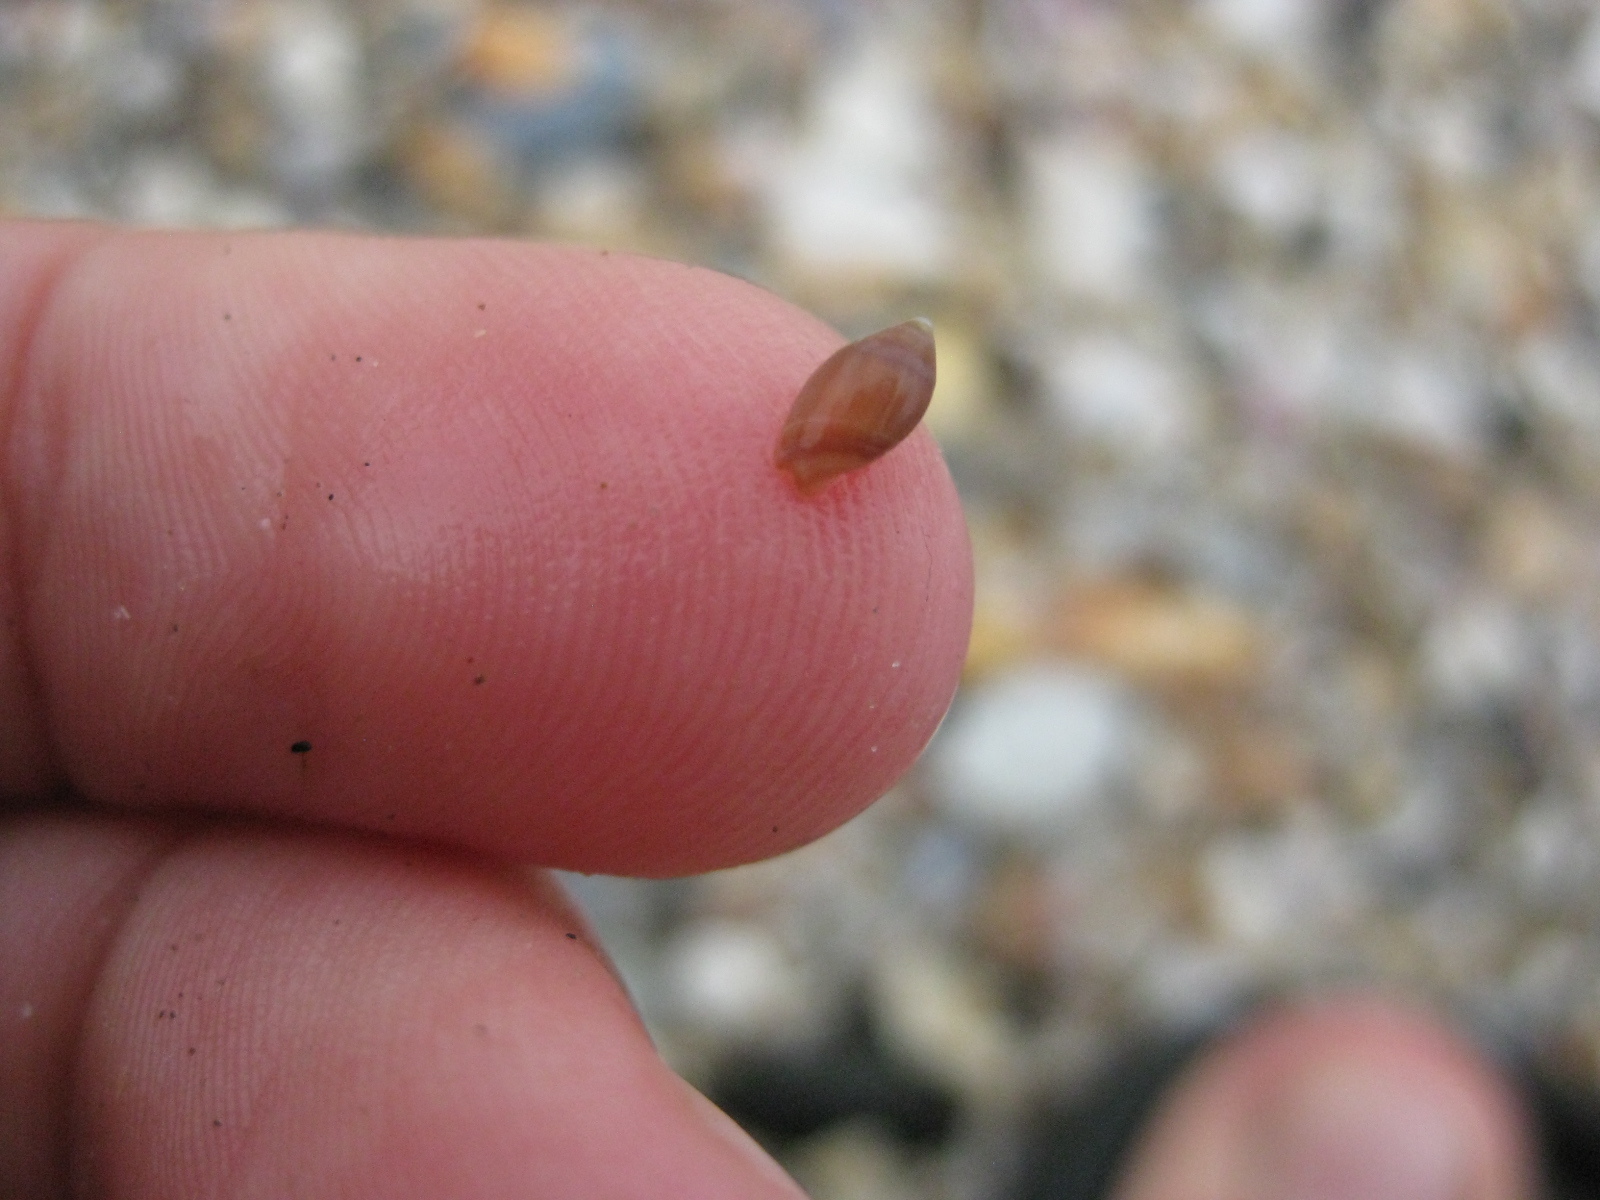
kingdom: Animalia
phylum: Mollusca
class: Gastropoda
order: Neogastropoda
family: Ancillariidae
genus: Amalda
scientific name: Amalda australis
